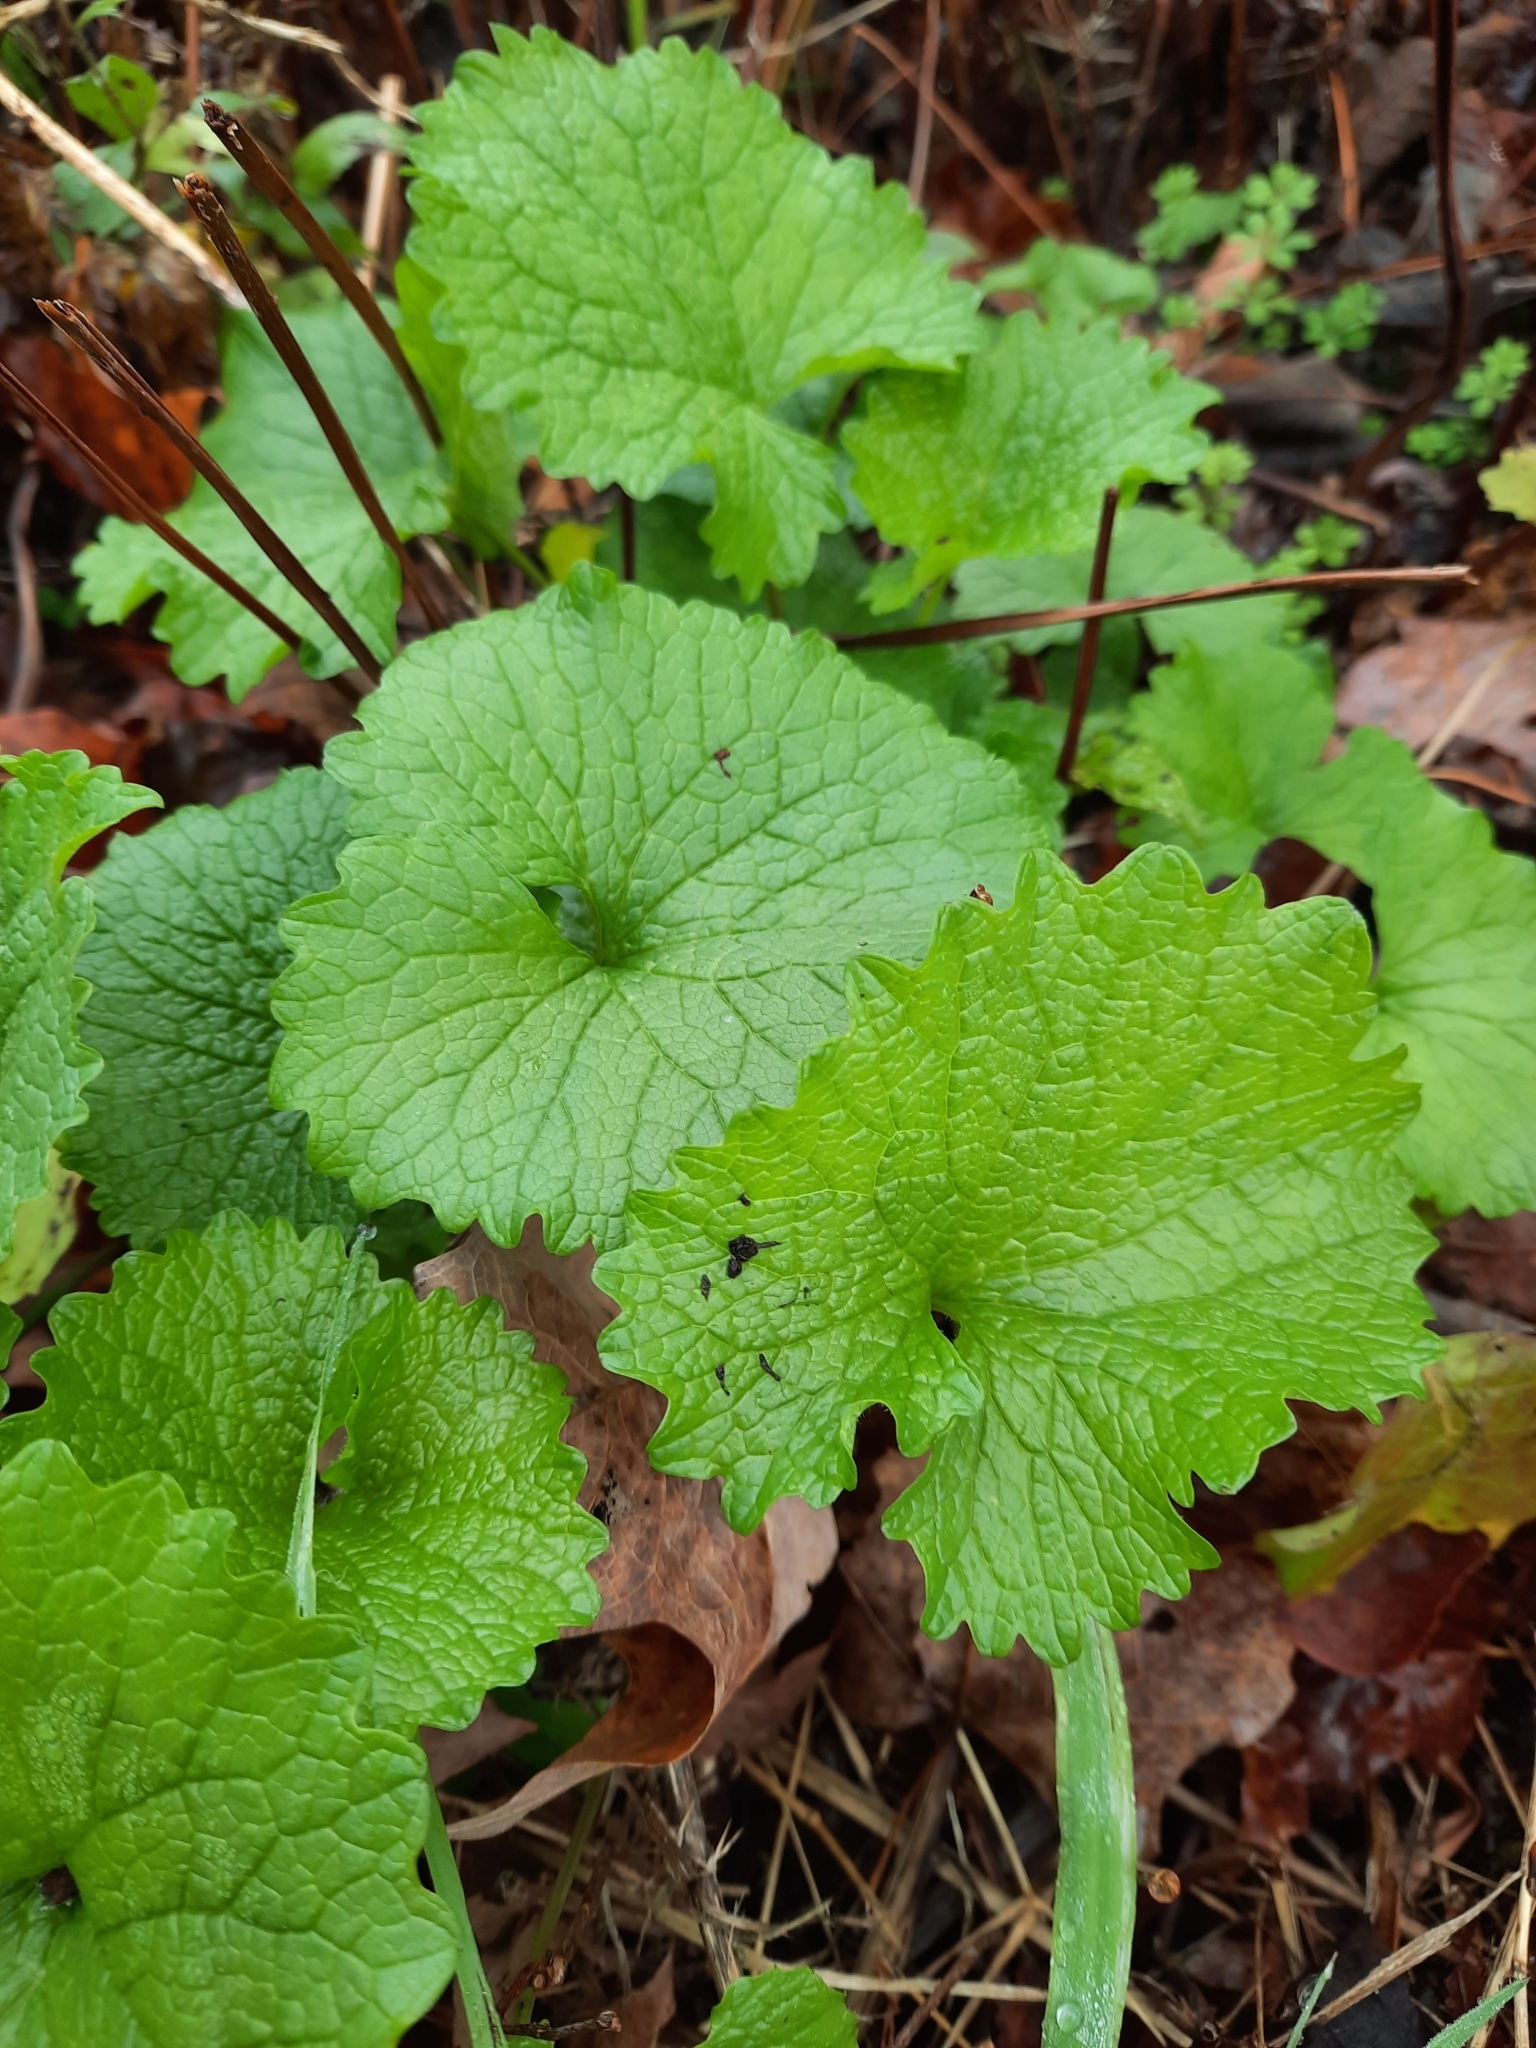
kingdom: Plantae
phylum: Tracheophyta
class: Magnoliopsida
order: Brassicales
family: Brassicaceae
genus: Alliaria
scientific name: Alliaria petiolata
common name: Garlic mustard
